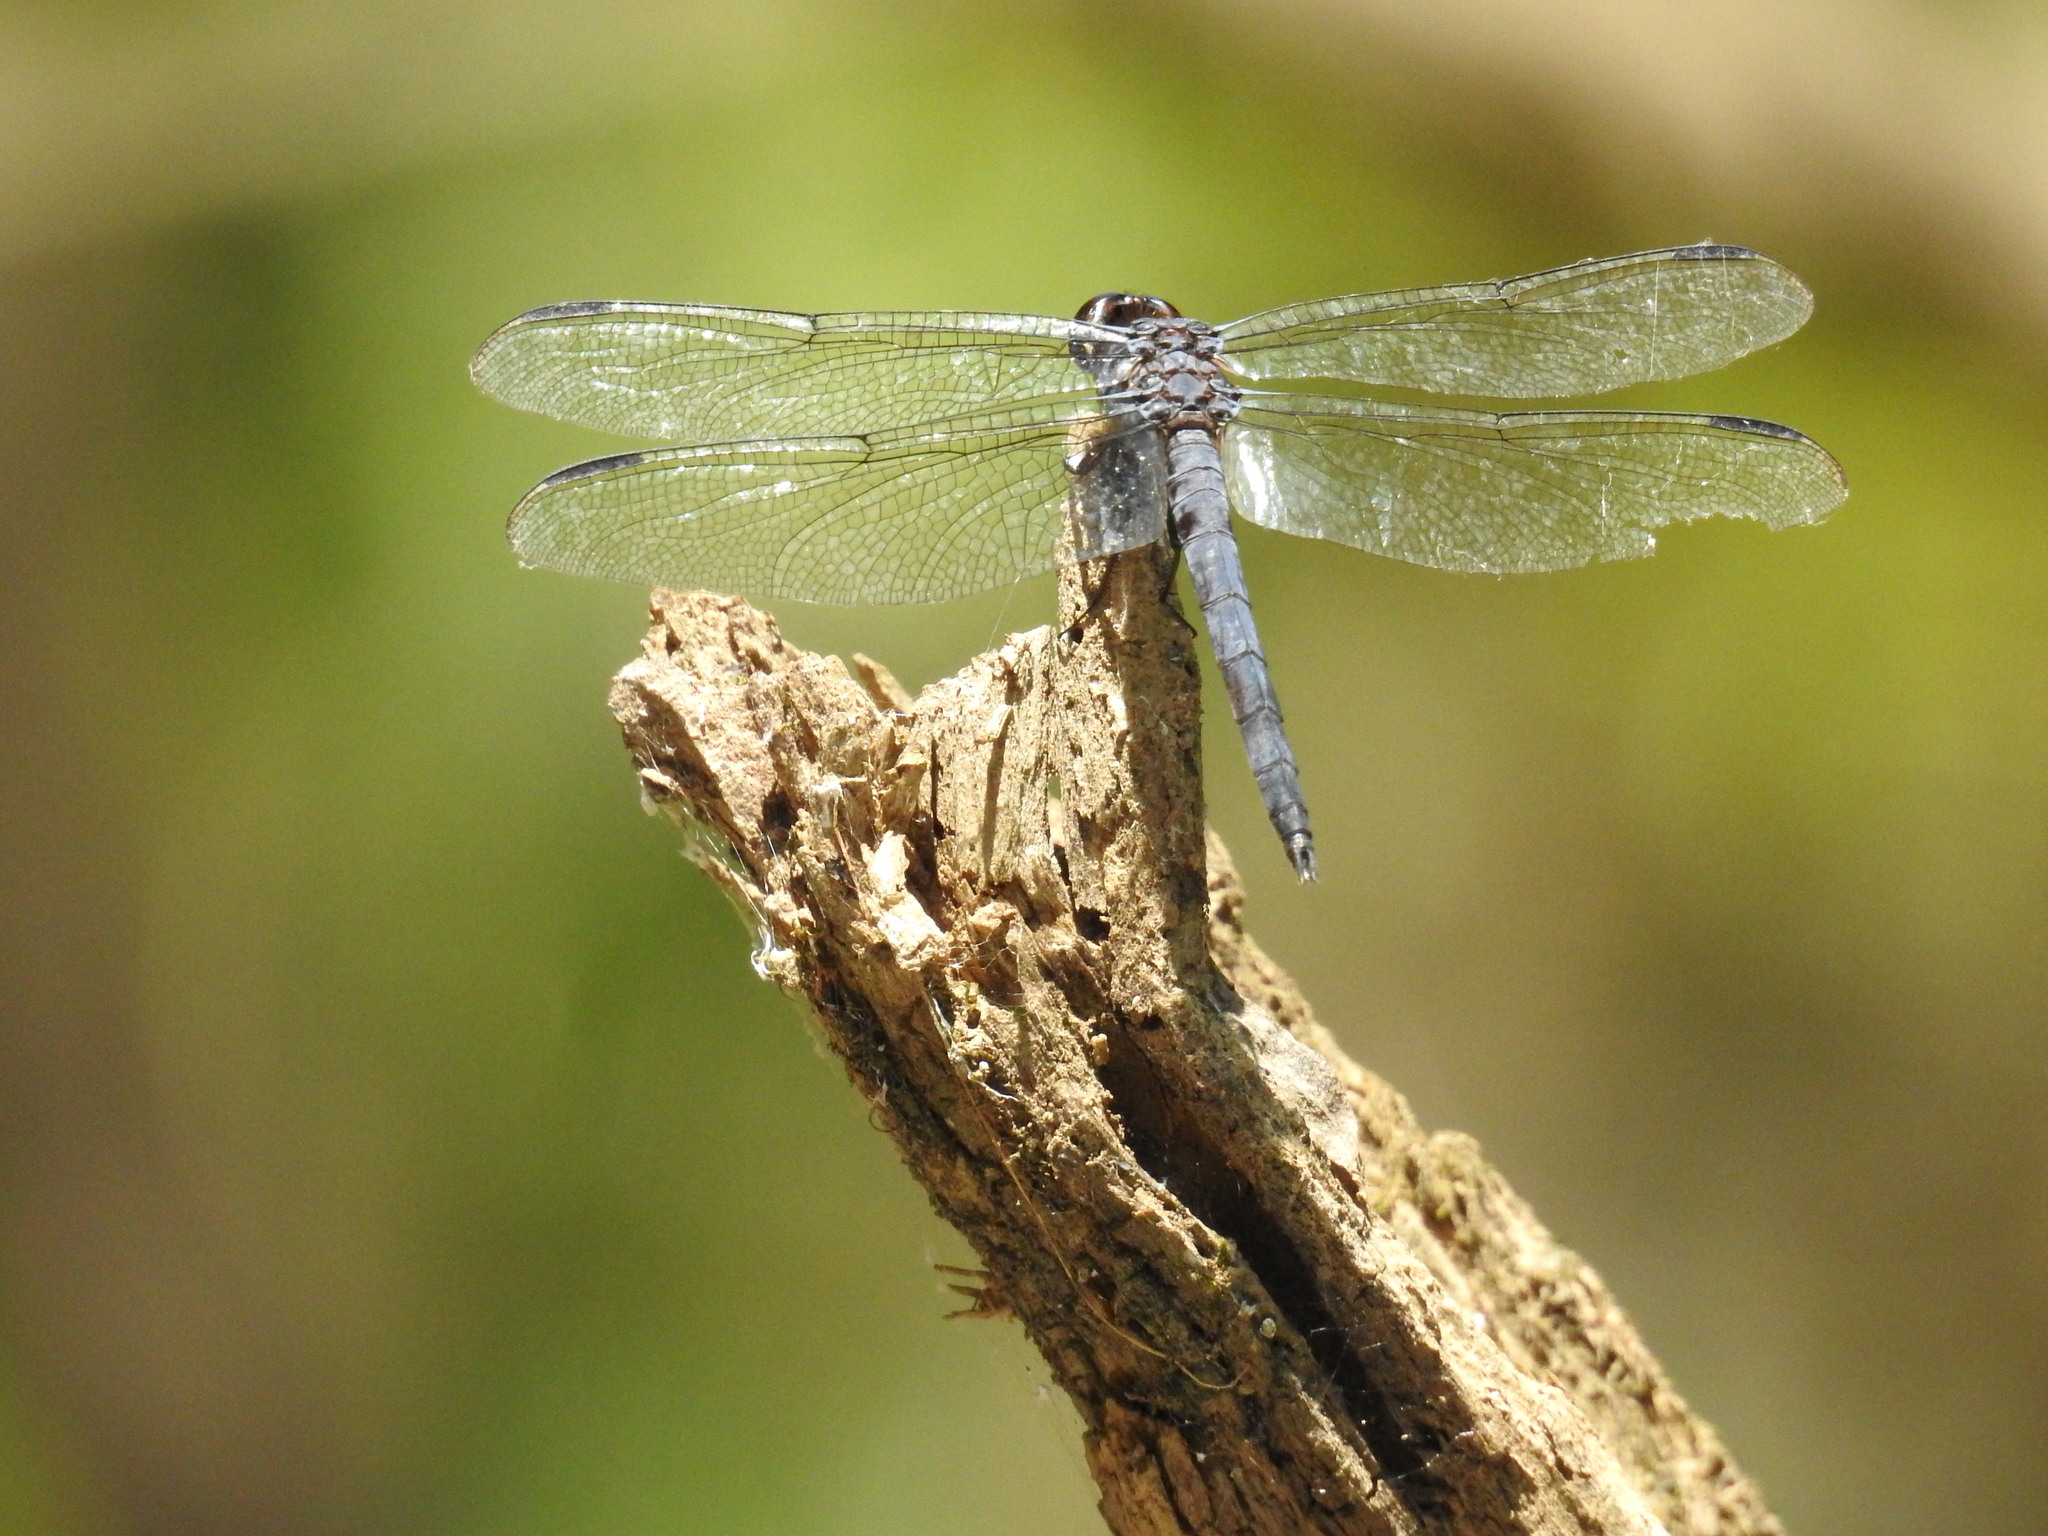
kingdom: Animalia
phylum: Arthropoda
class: Insecta
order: Odonata
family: Libellulidae
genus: Libellula
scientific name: Libellula incesta
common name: Slaty skimmer
